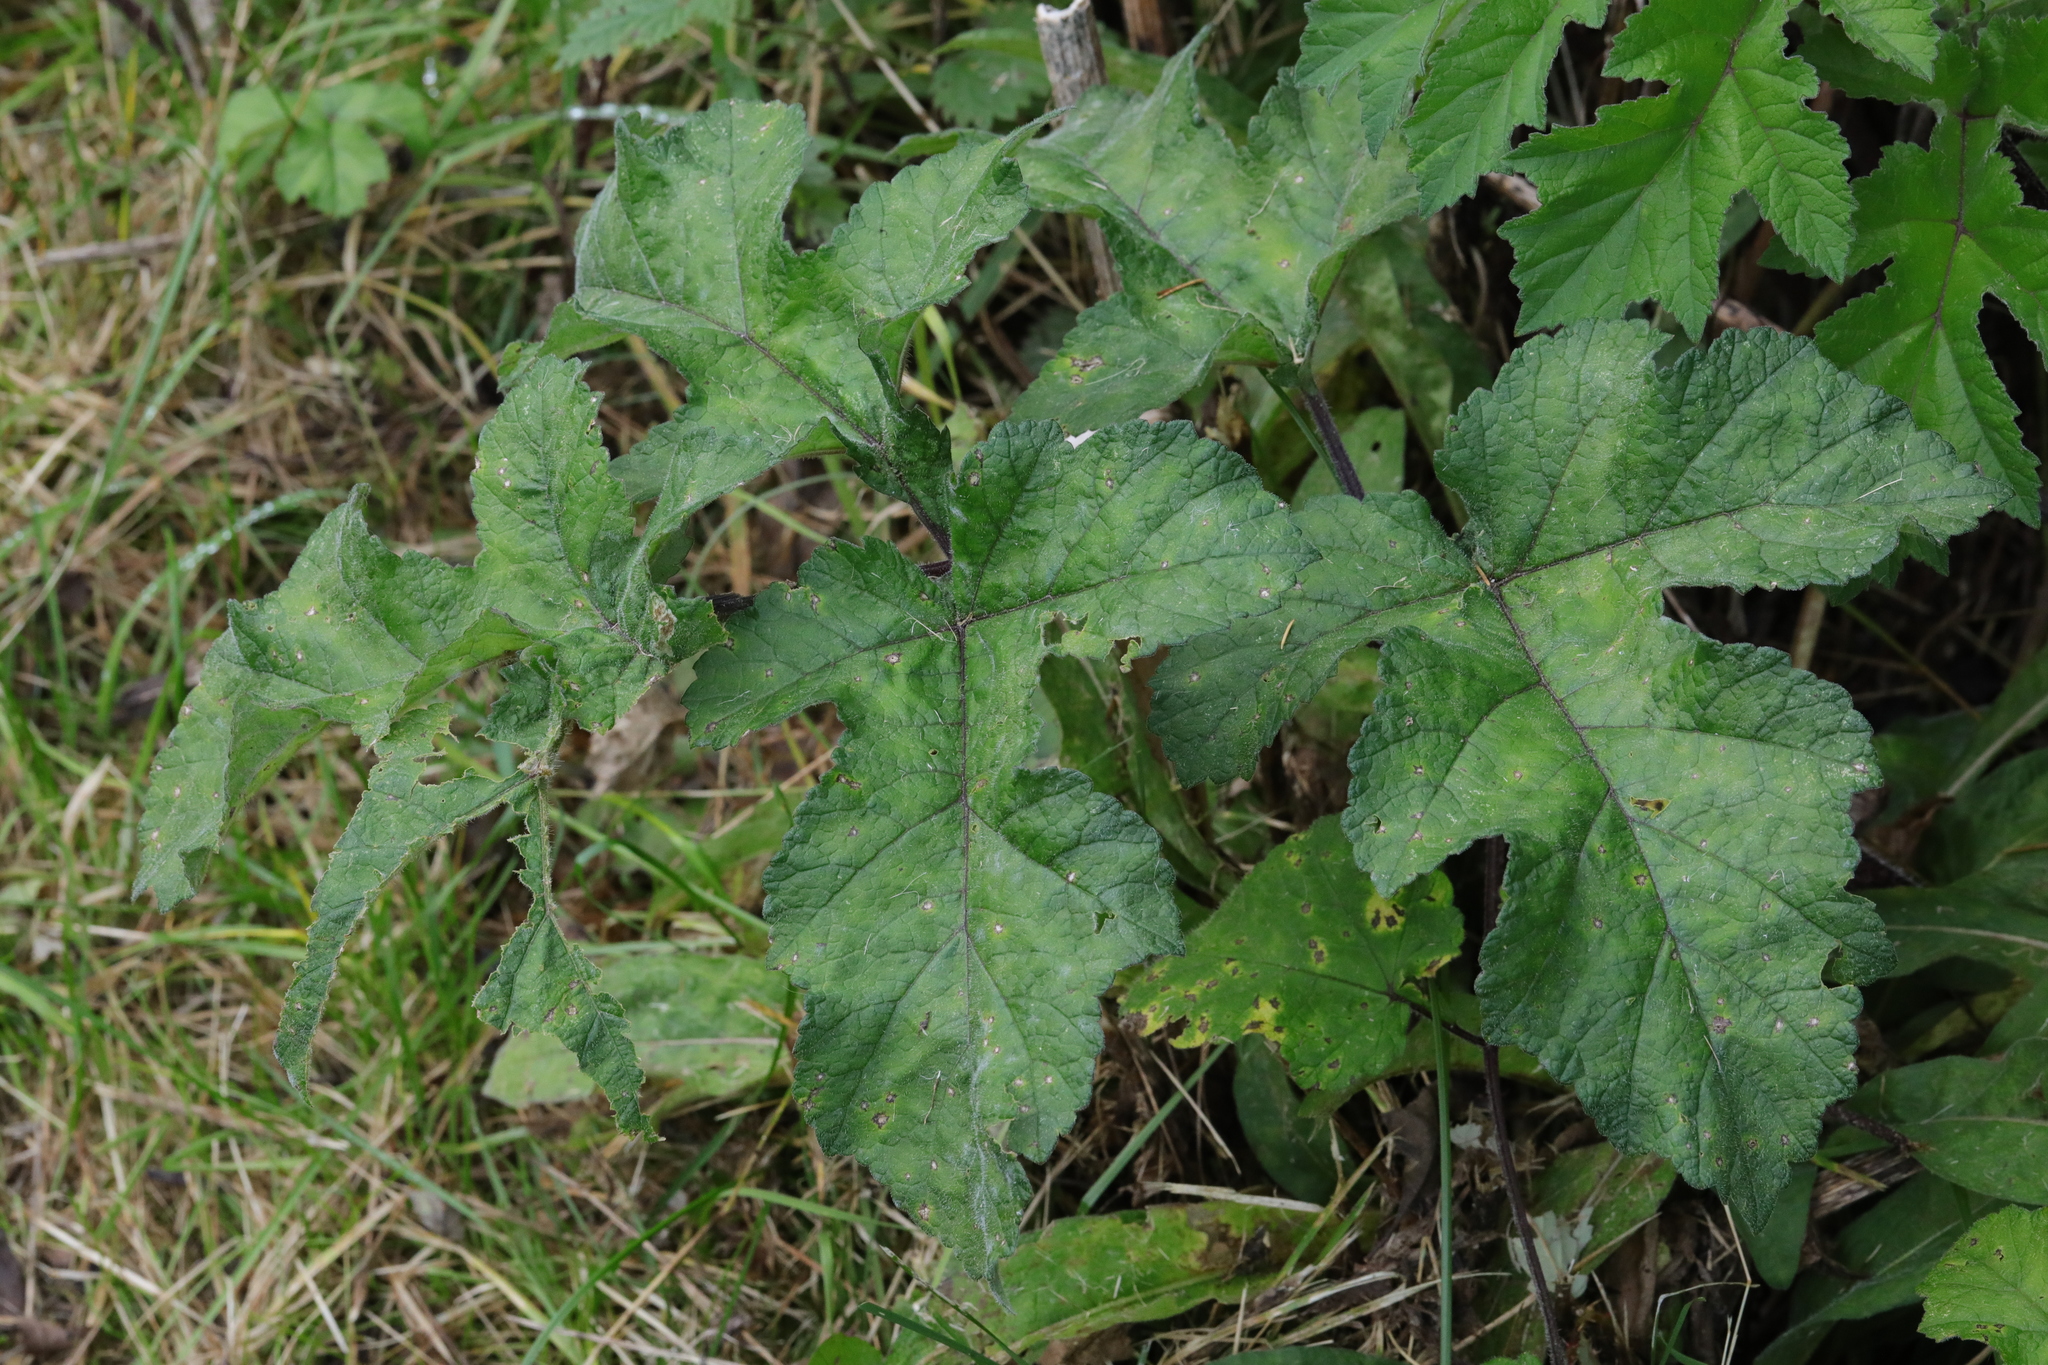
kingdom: Plantae
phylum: Tracheophyta
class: Magnoliopsida
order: Apiales
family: Apiaceae
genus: Heracleum
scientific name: Heracleum sphondylium
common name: Hogweed
